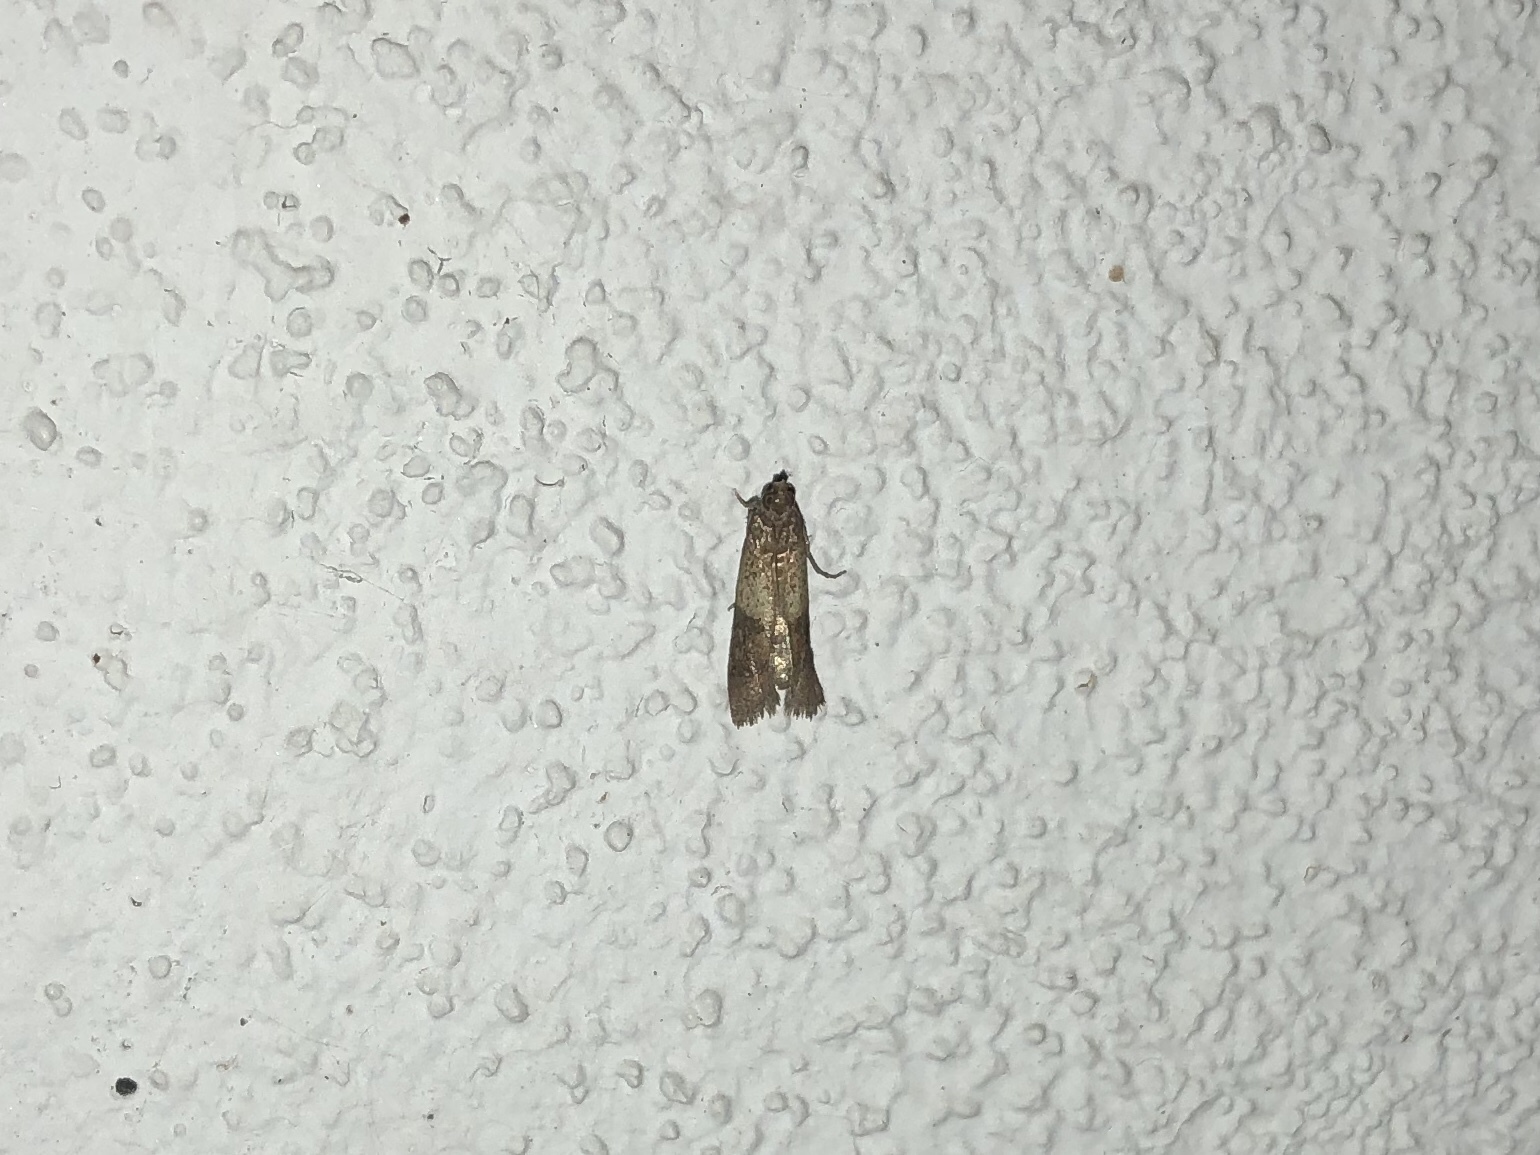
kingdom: Animalia
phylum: Arthropoda
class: Insecta
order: Lepidoptera
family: Pyralidae
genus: Plodia
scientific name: Plodia interpunctella
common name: Indian meal moth
